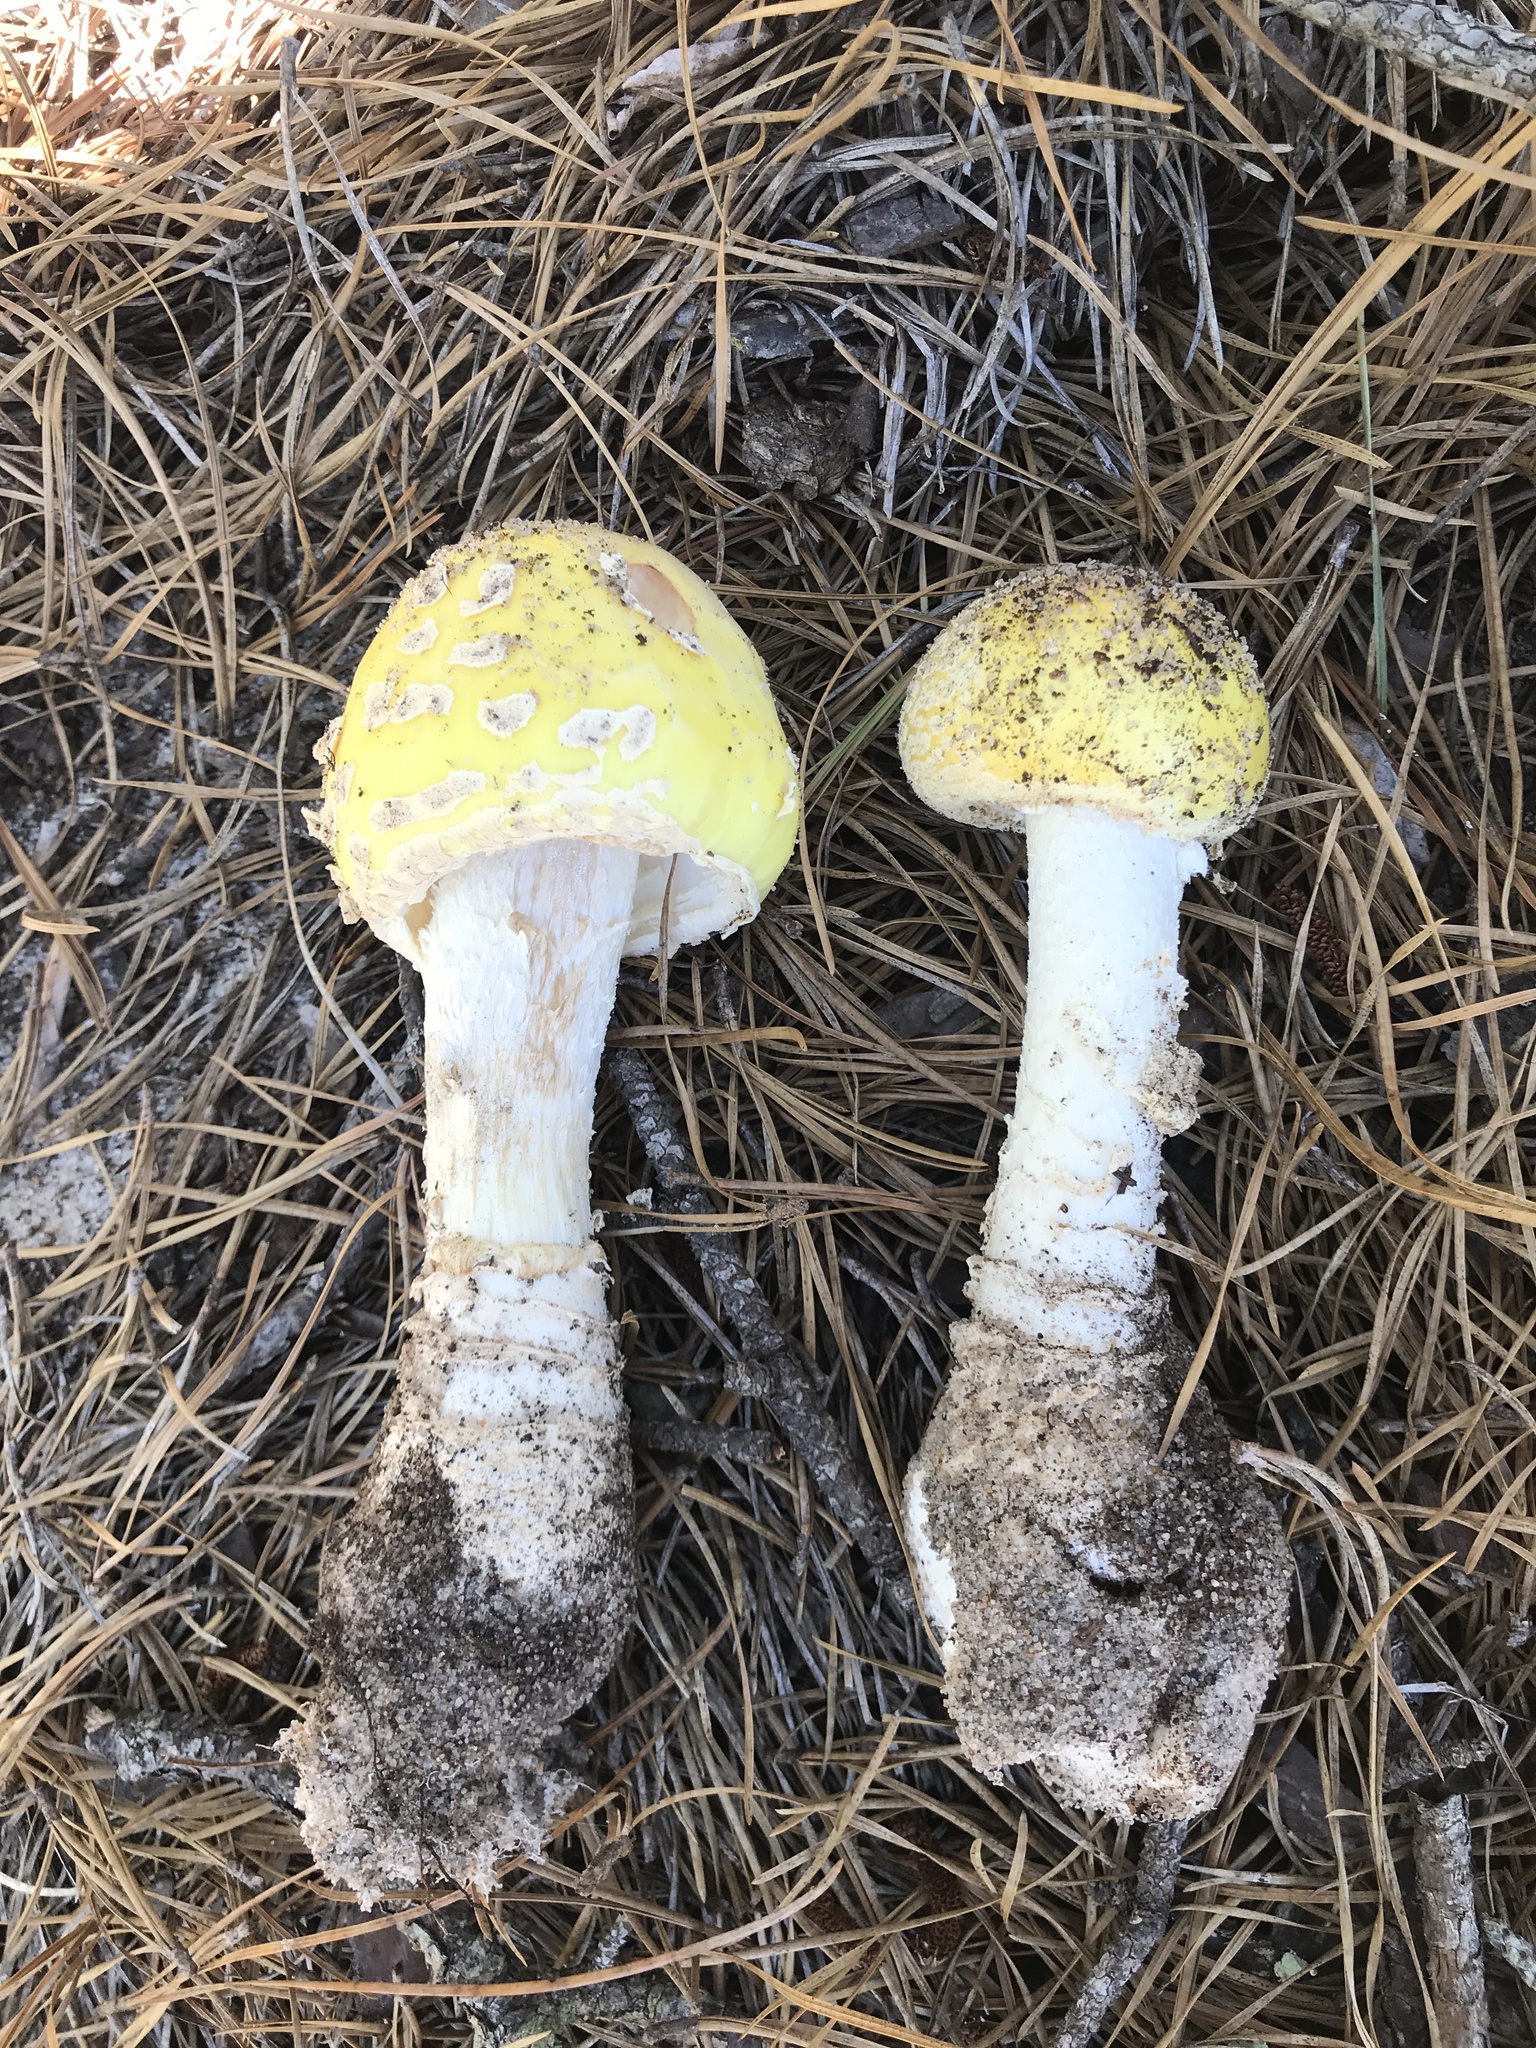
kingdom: Fungi
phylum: Basidiomycota
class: Agaricomycetes
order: Agaricales
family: Amanitaceae
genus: Amanita
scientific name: Amanita muscaria
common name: Fly agaric
